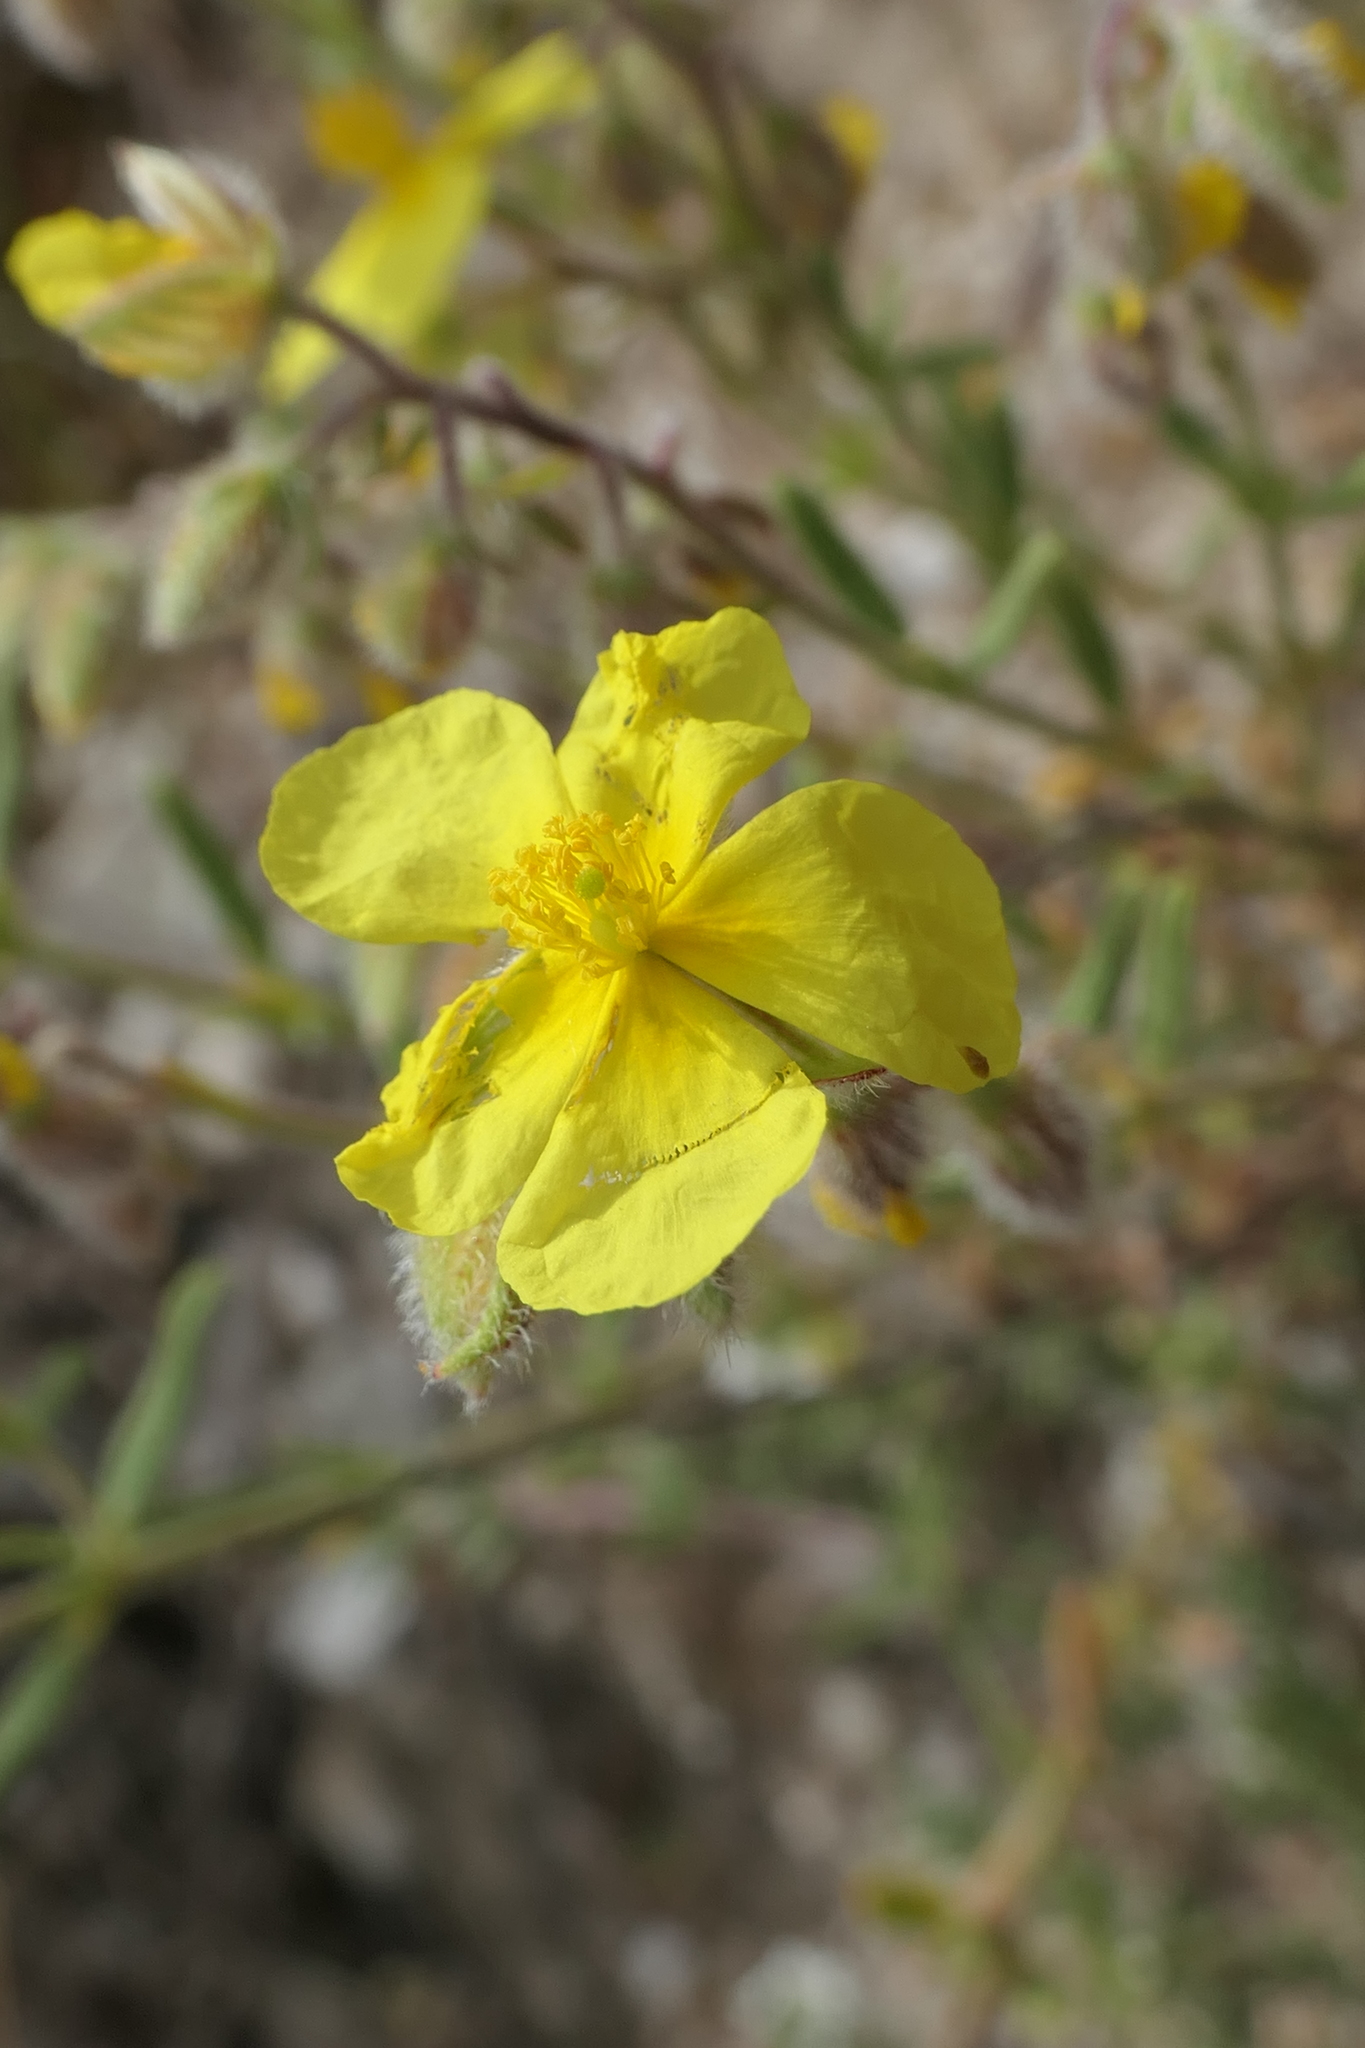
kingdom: Plantae
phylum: Tracheophyta
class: Magnoliopsida
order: Malvales
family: Cistaceae
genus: Helianthemum
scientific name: Helianthemum hirtum
